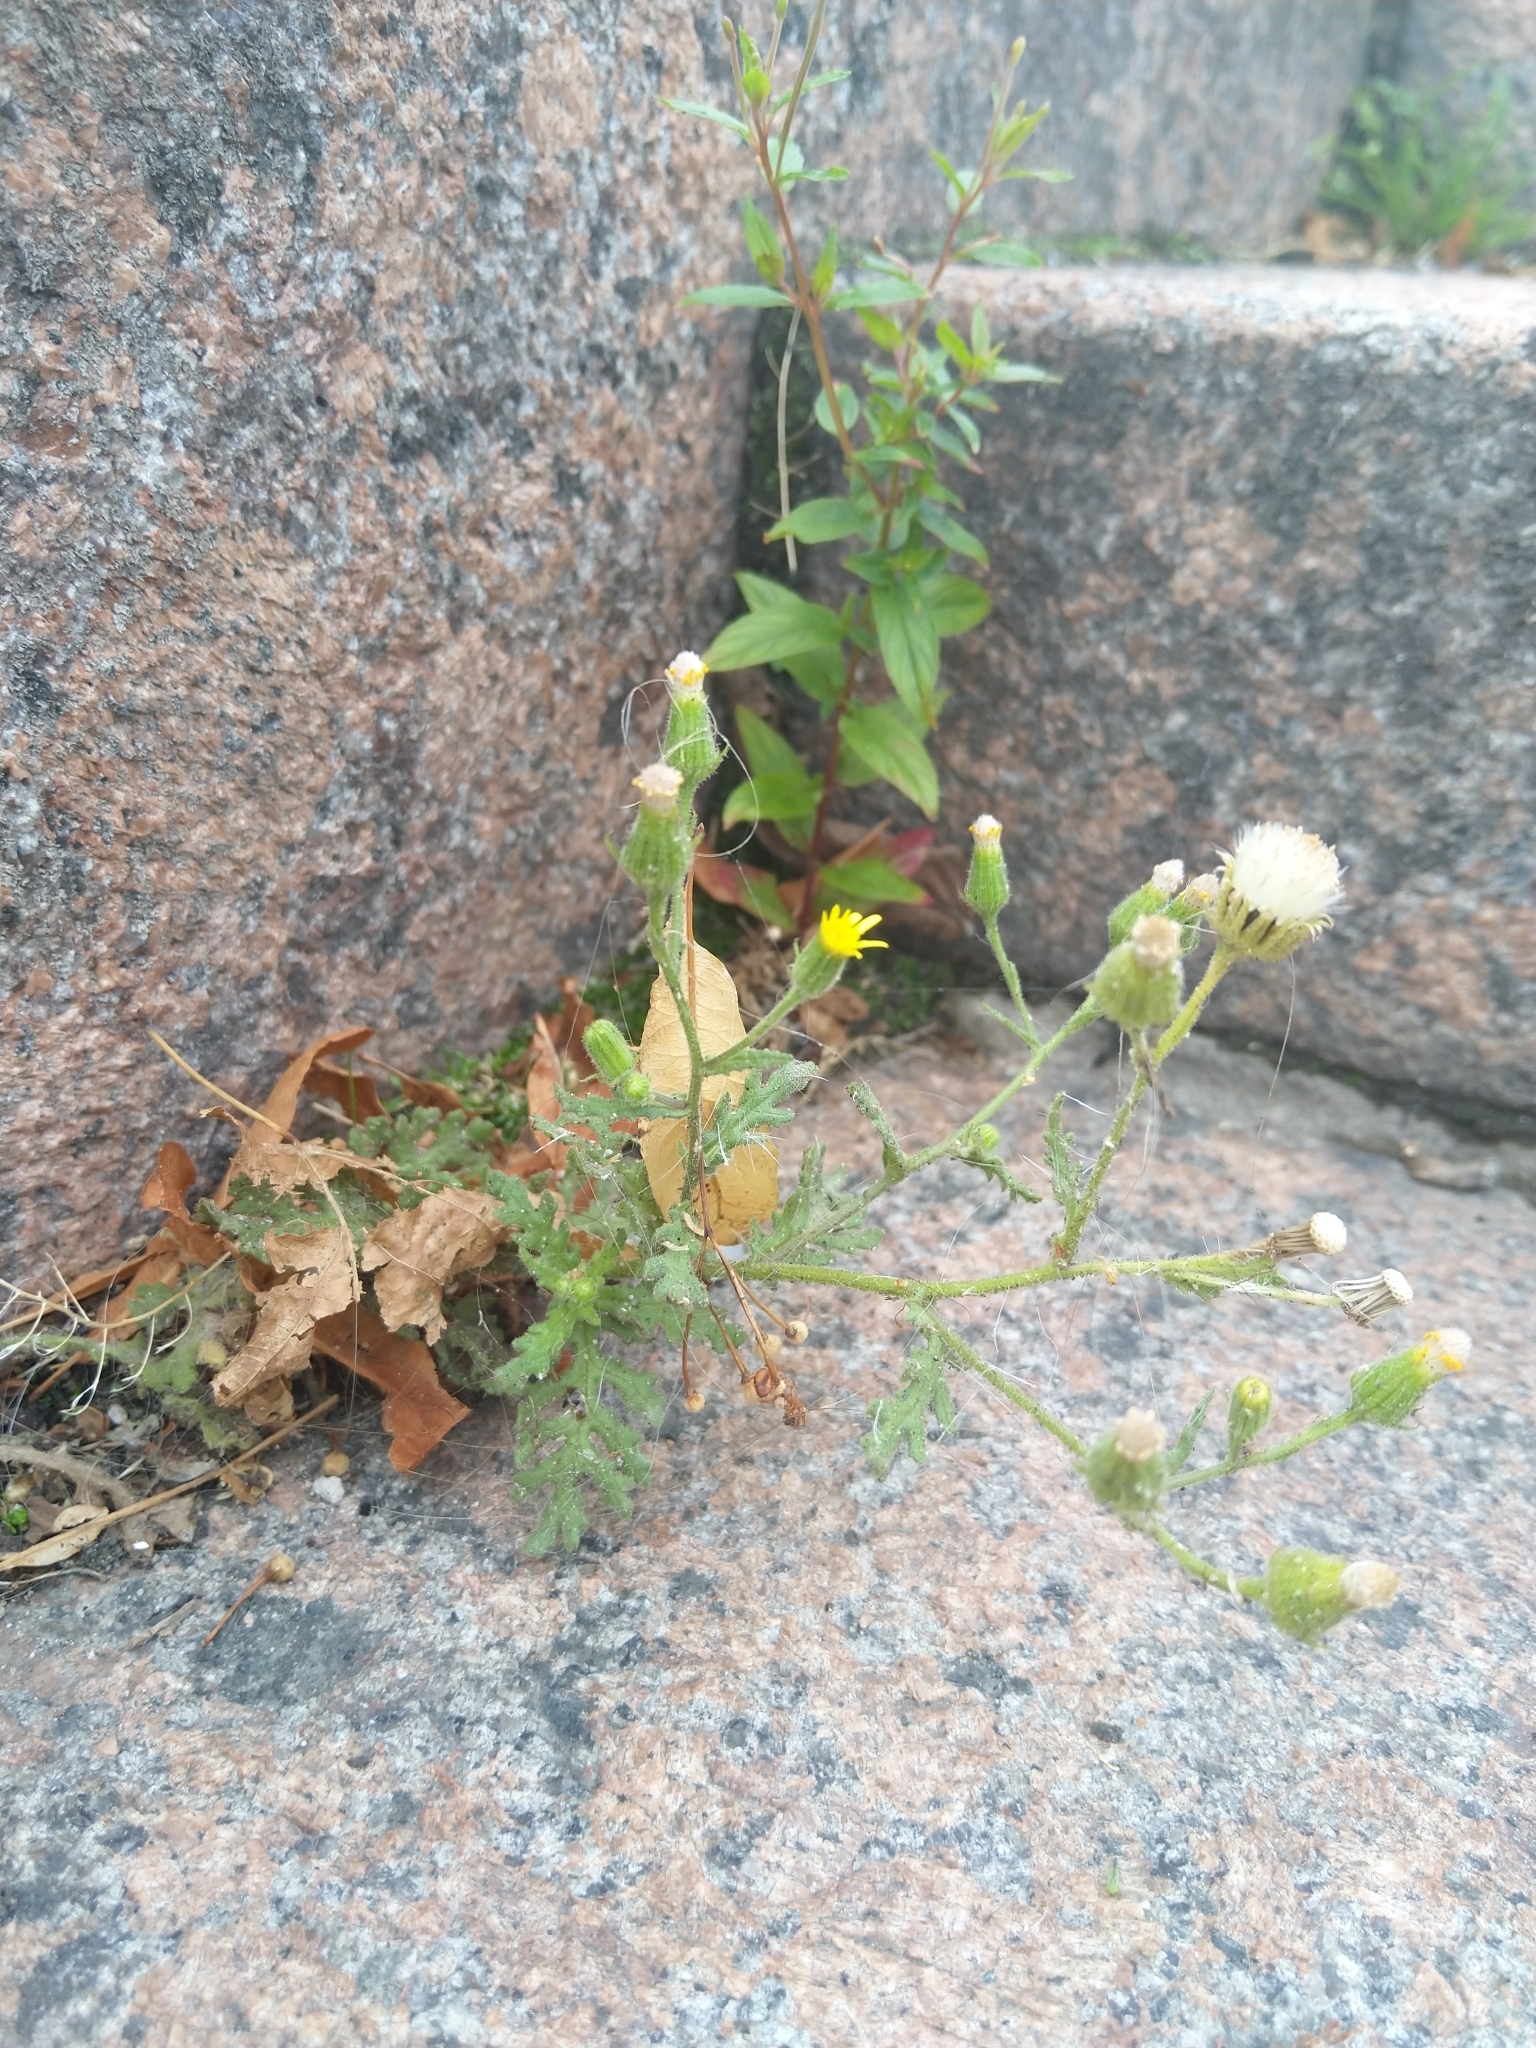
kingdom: Plantae
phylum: Tracheophyta
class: Magnoliopsida
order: Asterales
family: Asteraceae
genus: Senecio
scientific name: Senecio viscosus
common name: Sticky groundsel
